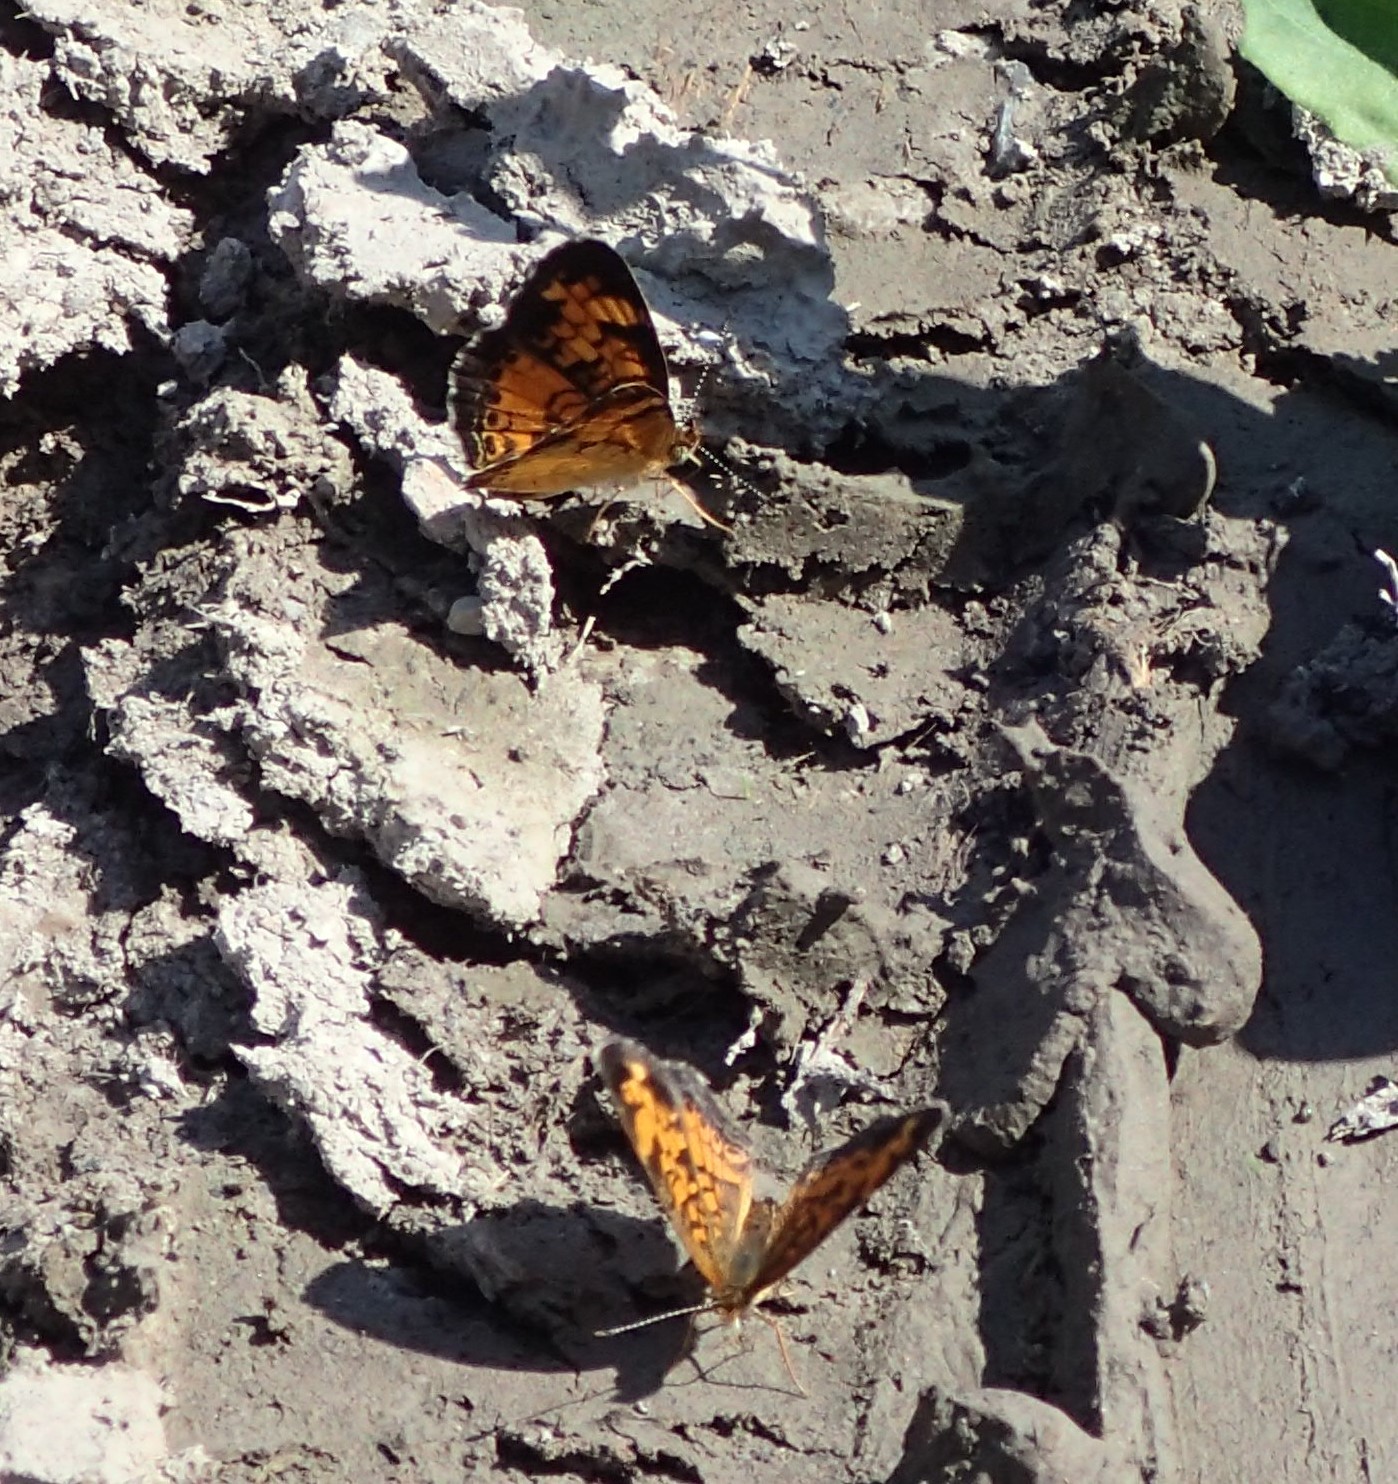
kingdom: Animalia
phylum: Arthropoda
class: Insecta
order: Lepidoptera
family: Nymphalidae
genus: Phyciodes
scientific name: Phyciodes tharos
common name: Pearl crescent
